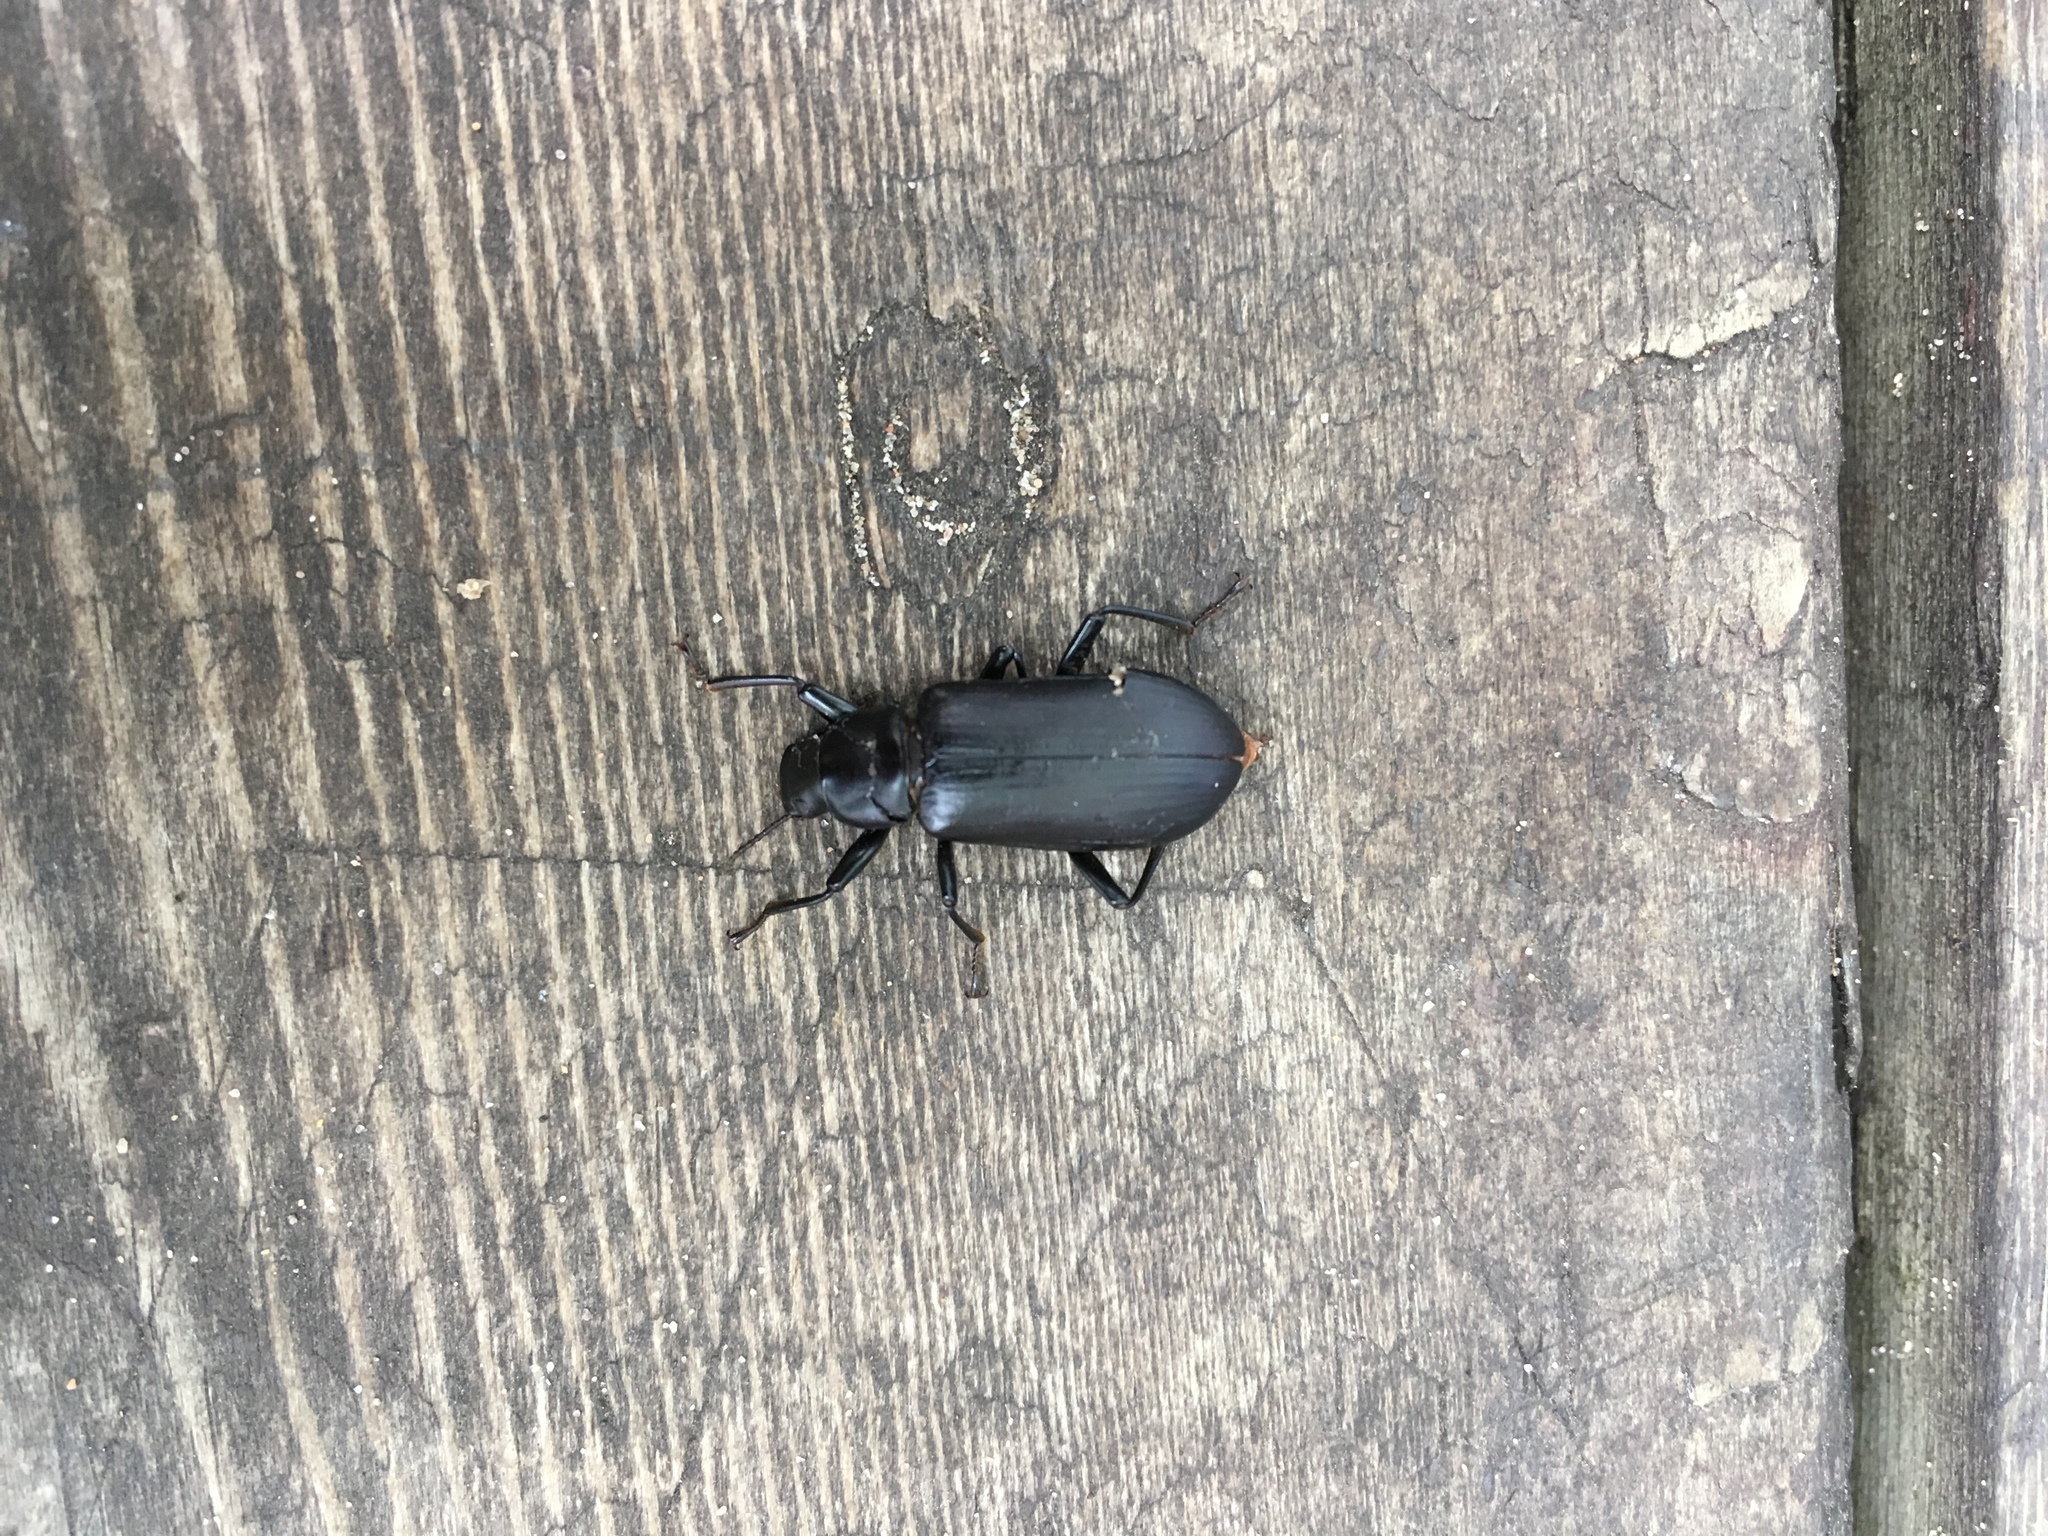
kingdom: Animalia
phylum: Arthropoda
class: Insecta
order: Coleoptera
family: Tenebrionidae
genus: Alobates
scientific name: Alobates pensylvanicus
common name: False mealworm beetle
